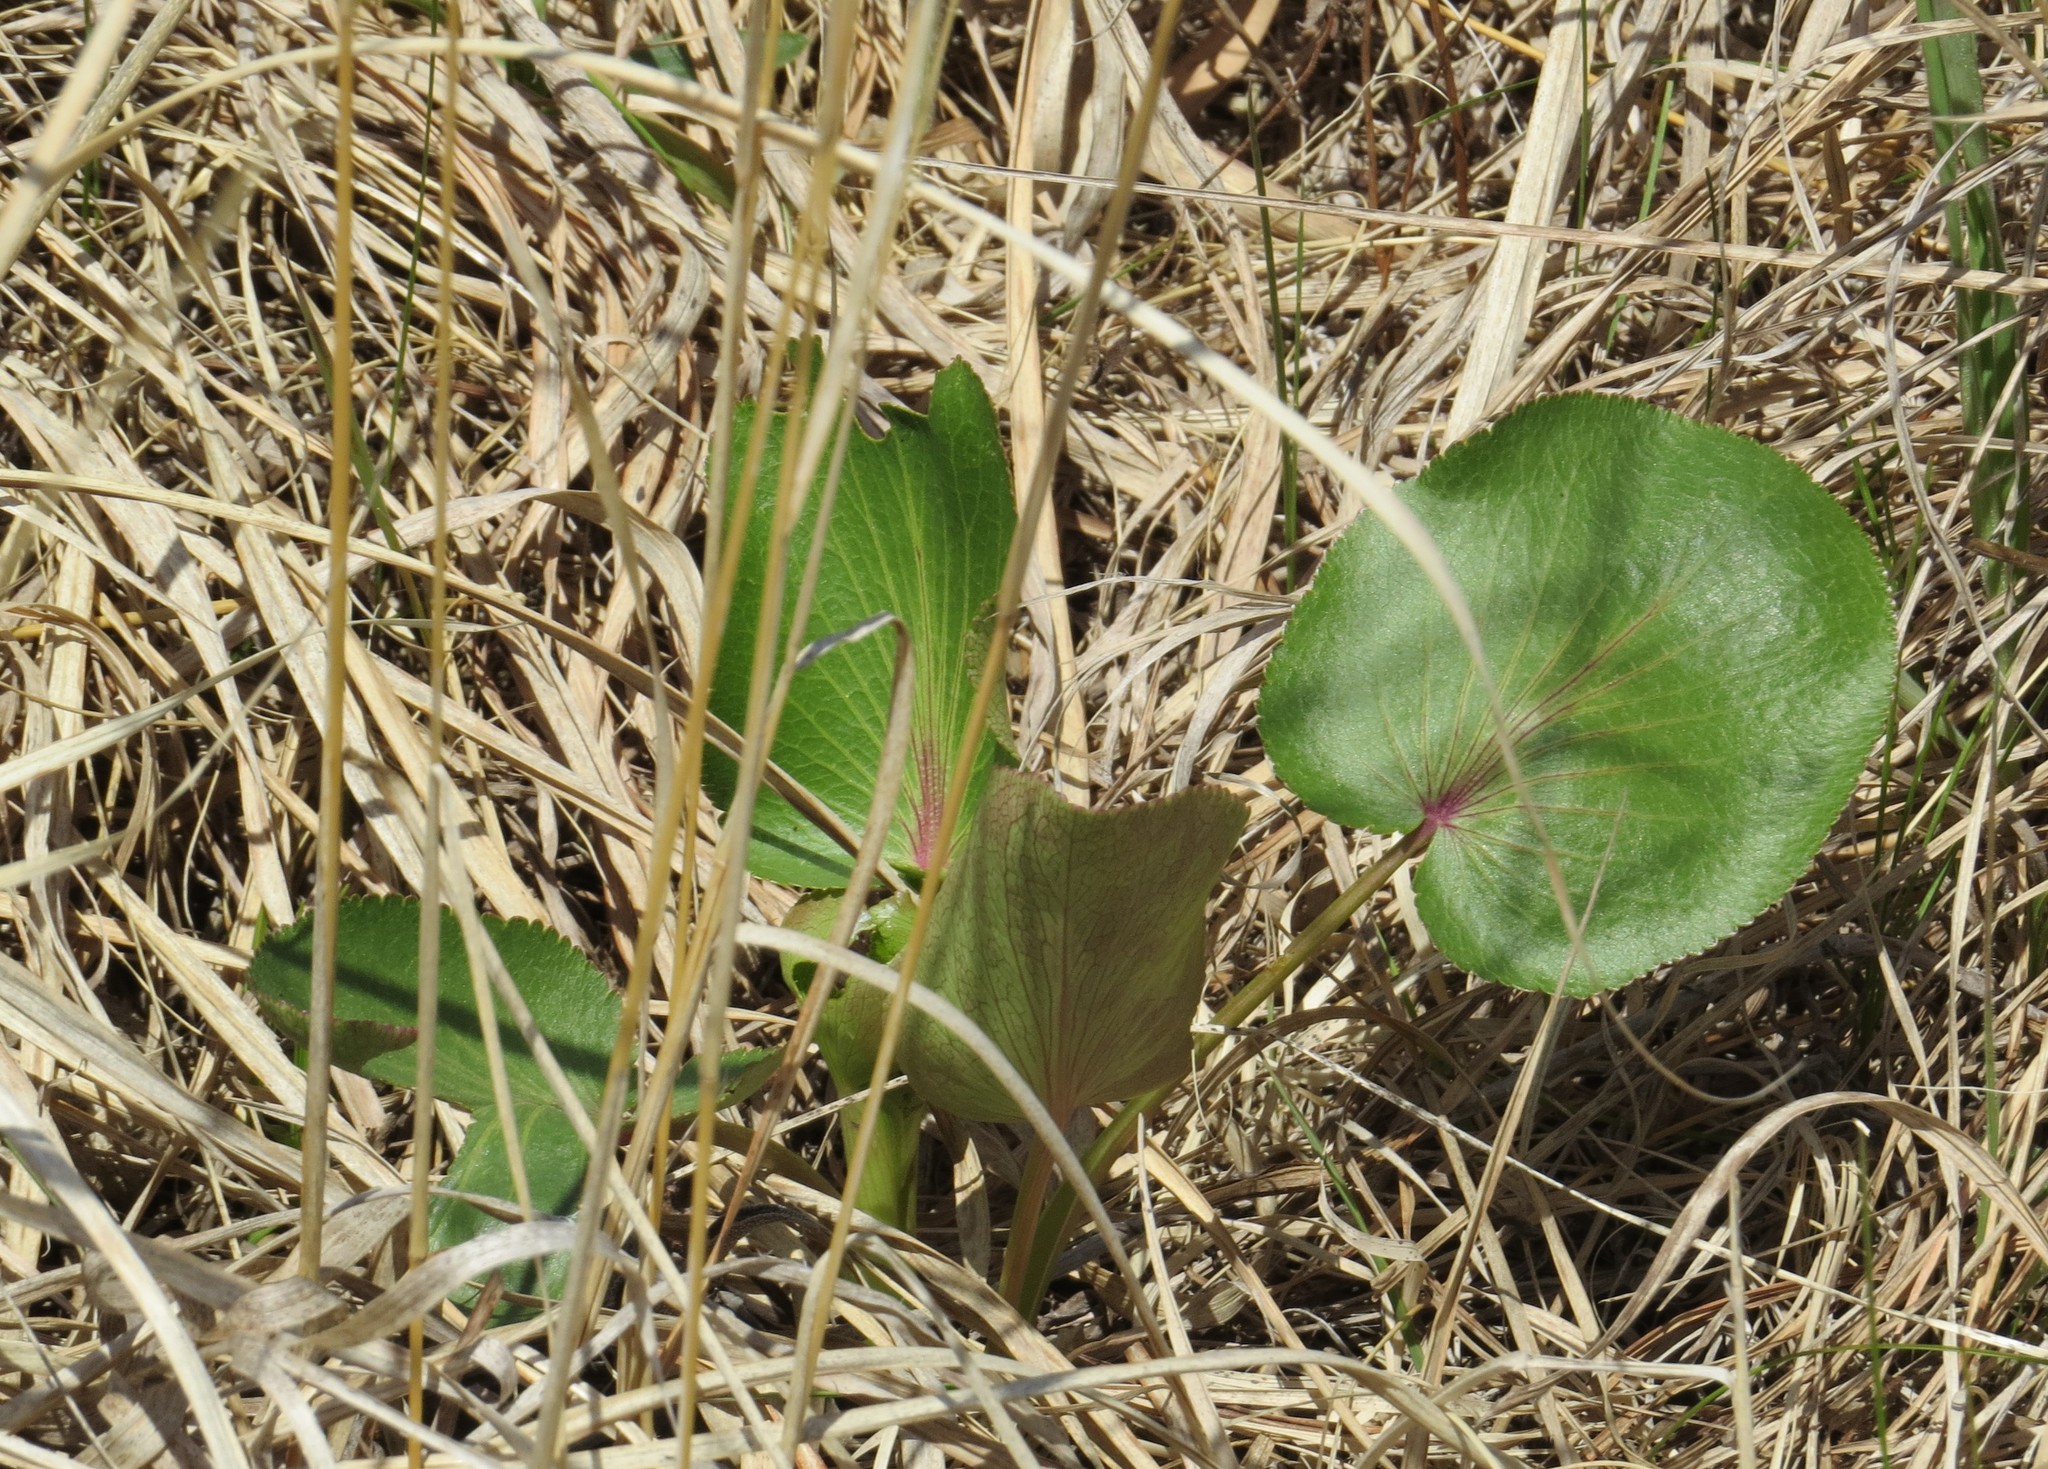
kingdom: Plantae
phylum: Tracheophyta
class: Magnoliopsida
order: Apiales
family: Apiaceae
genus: Zizia
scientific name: Zizia aptera
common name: Heart-leaved alexanders
